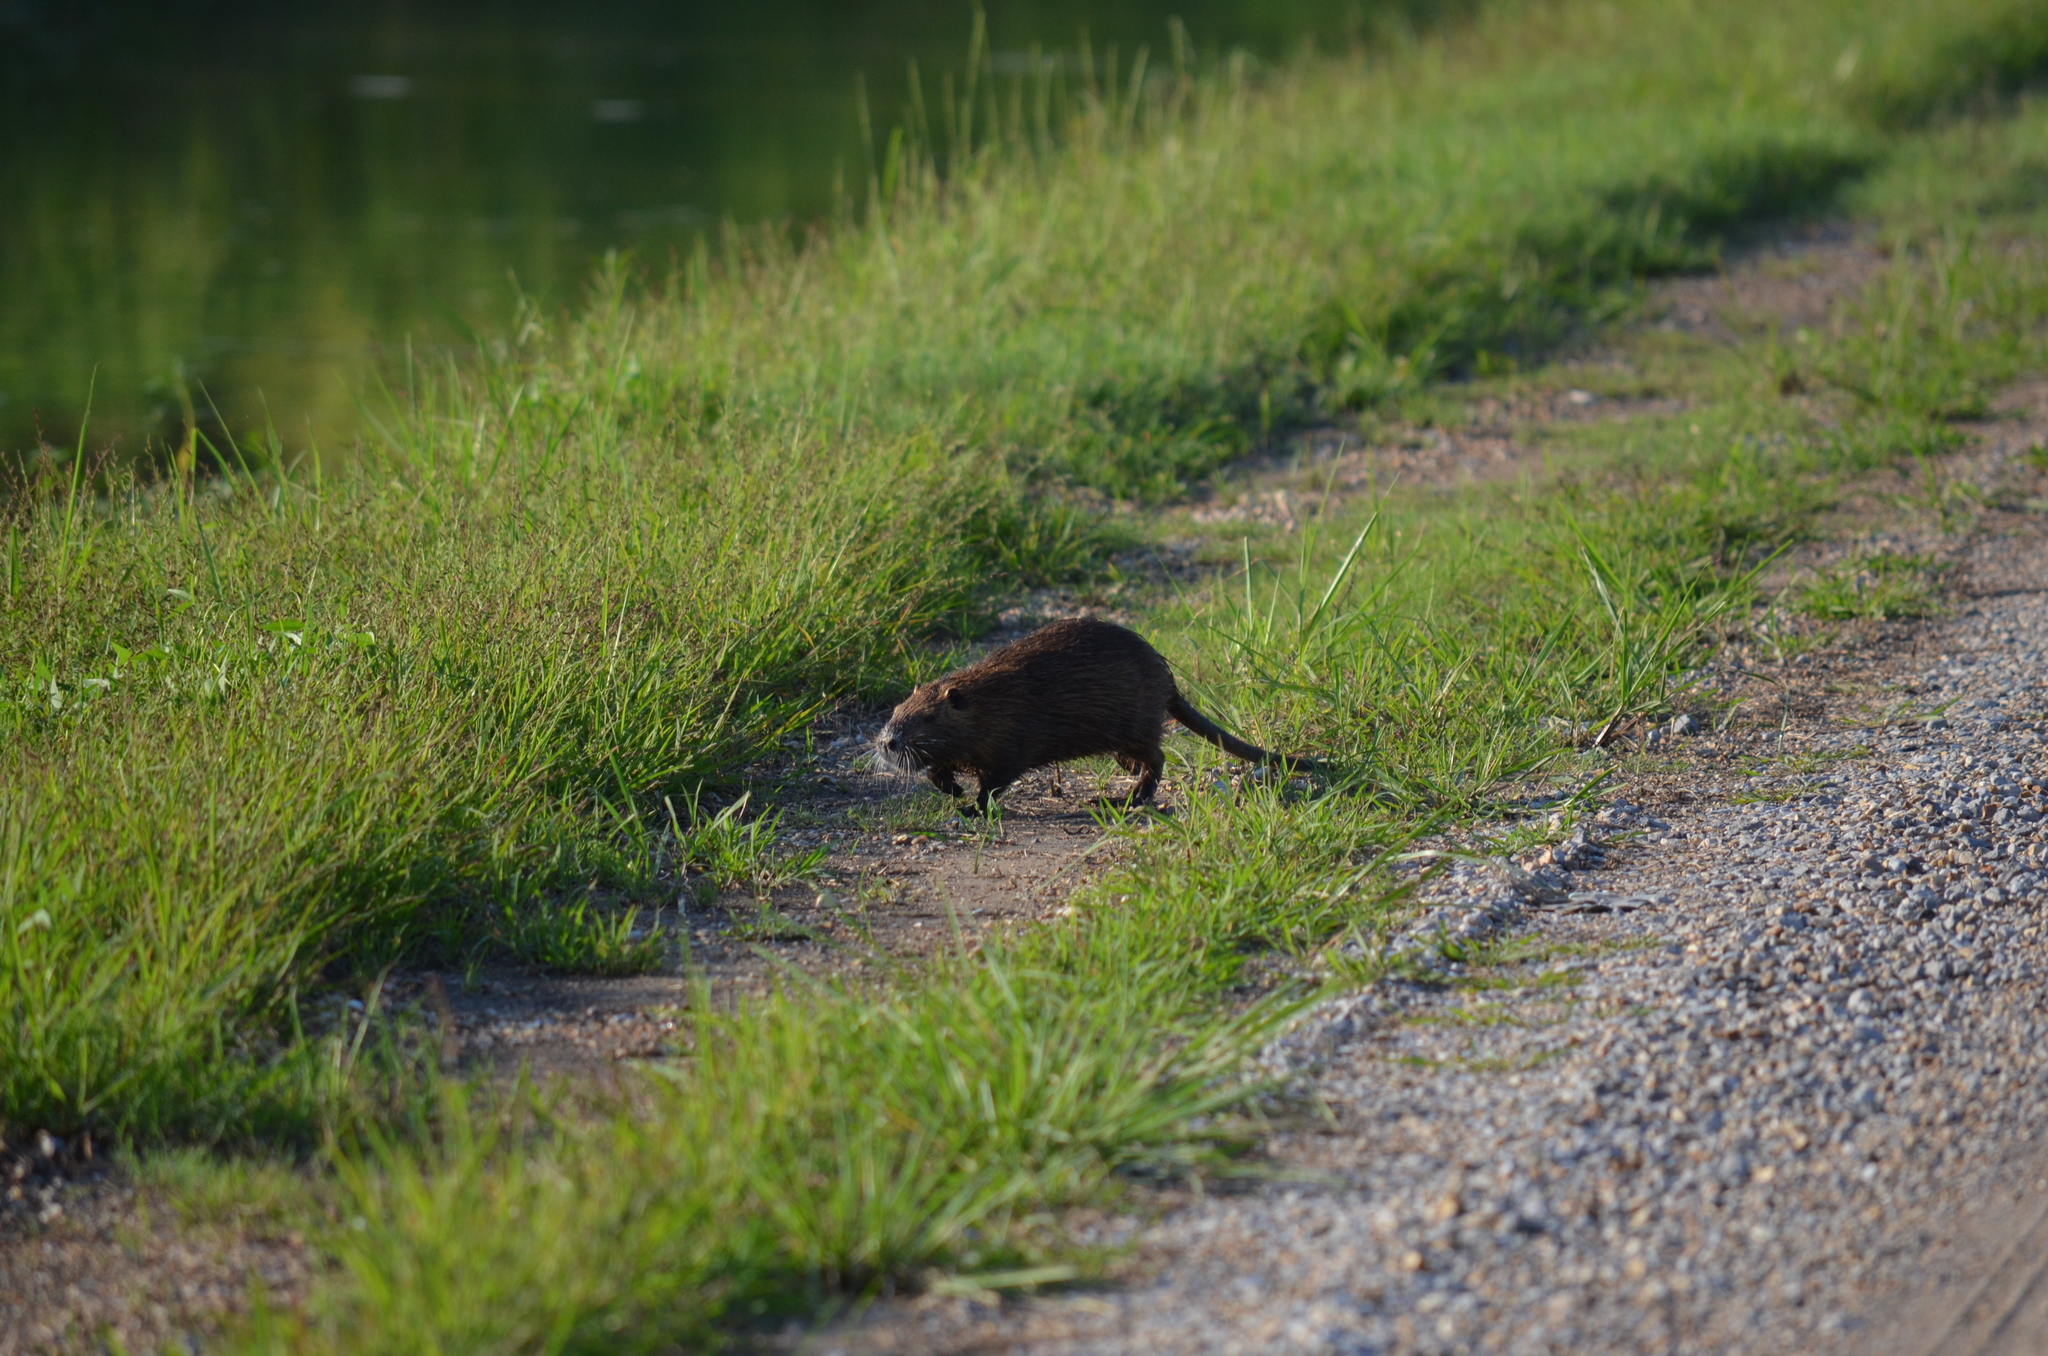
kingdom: Animalia
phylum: Chordata
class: Mammalia
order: Rodentia
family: Myocastoridae
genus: Myocastor
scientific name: Myocastor coypus
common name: Coypu
